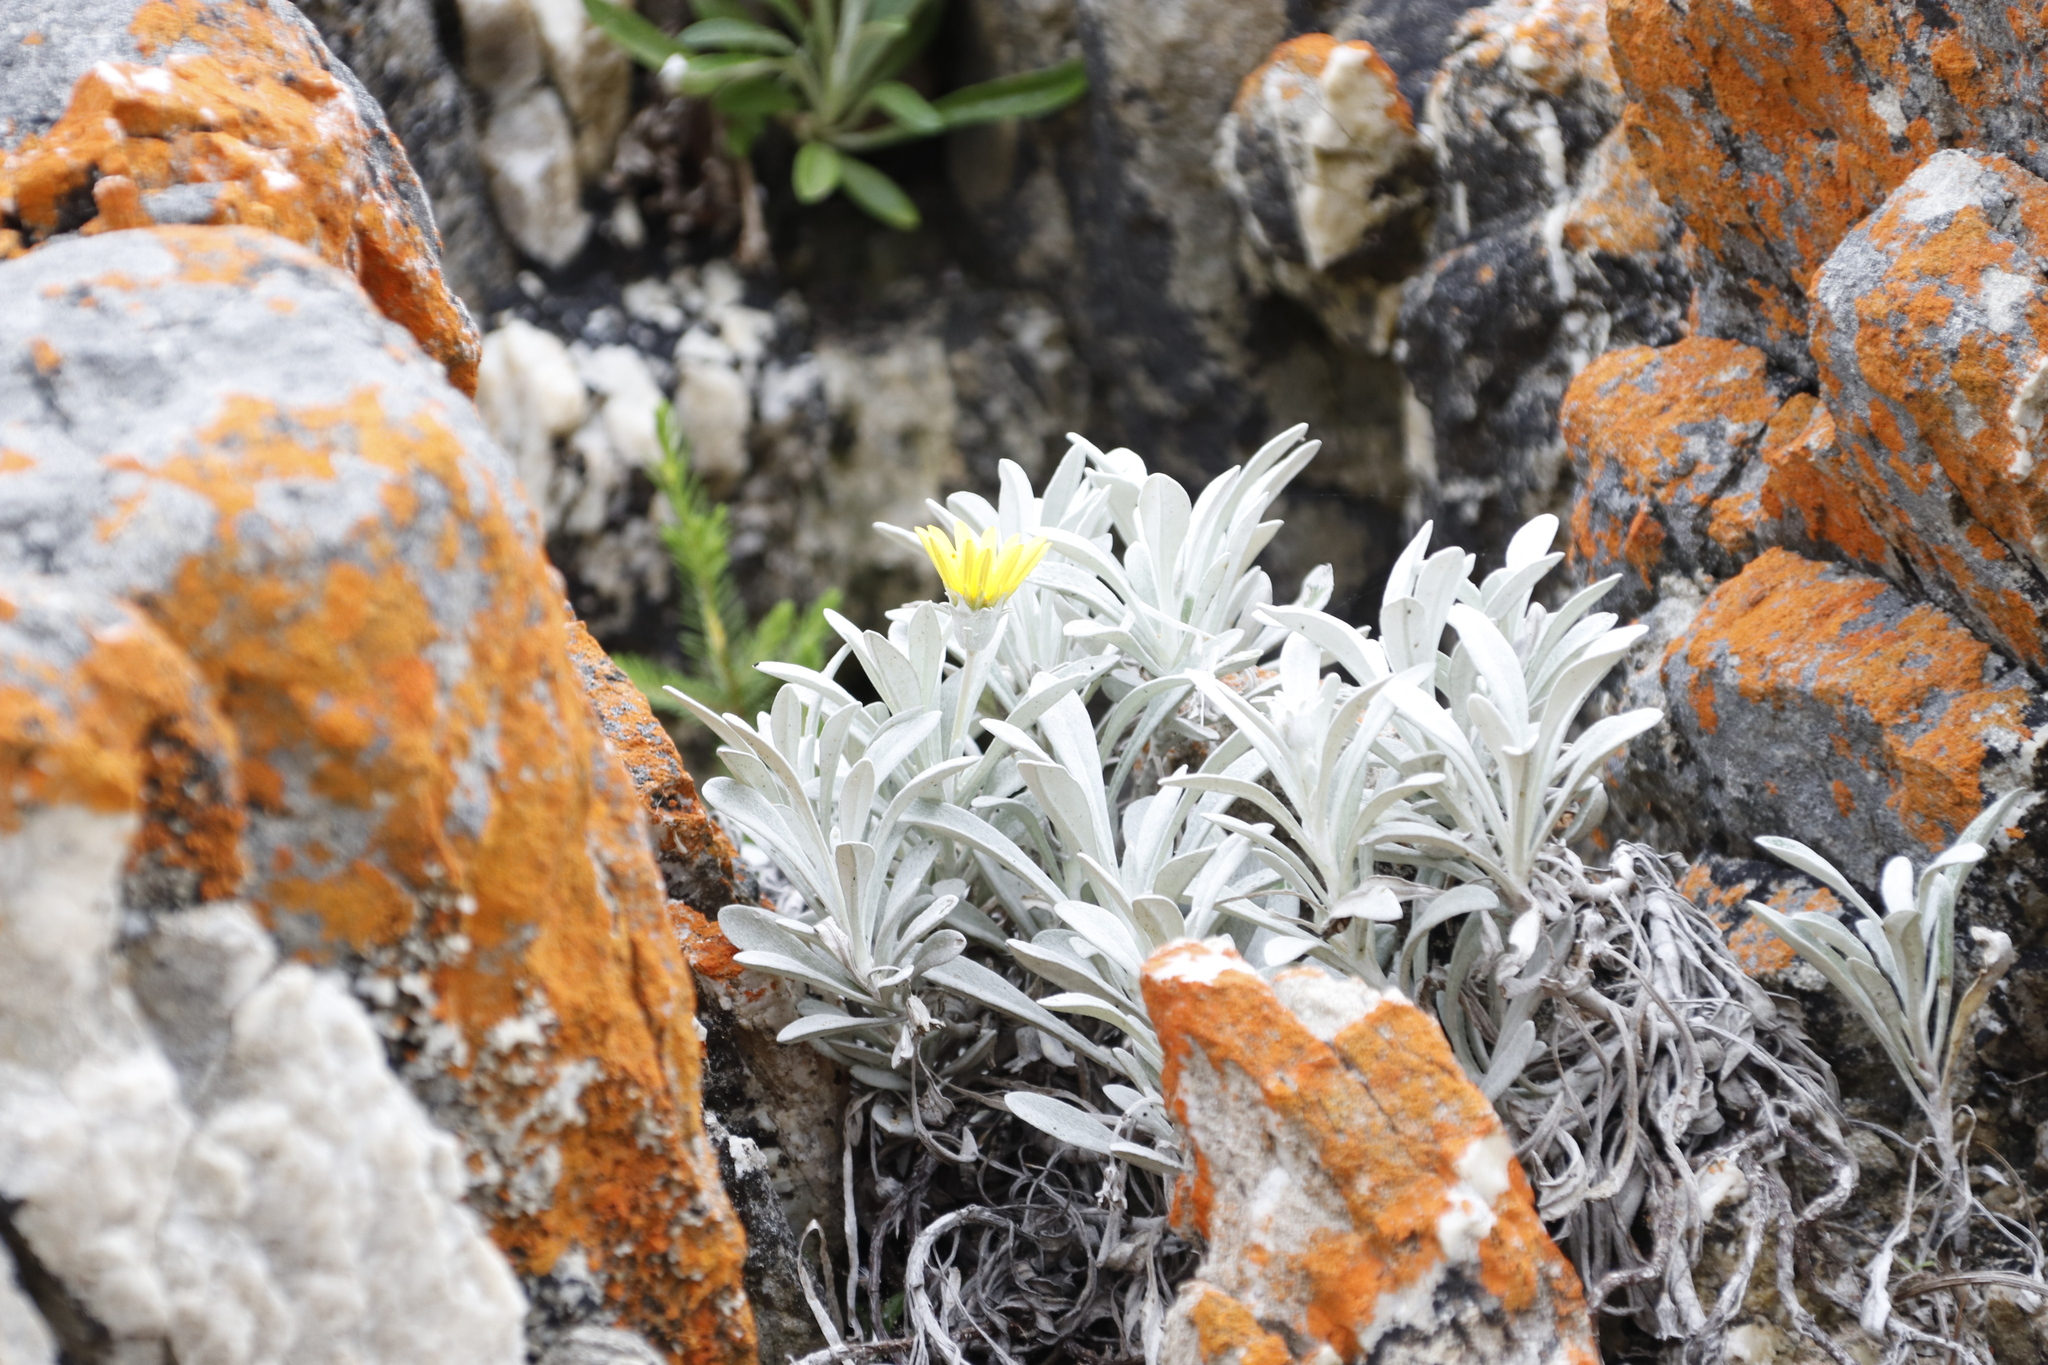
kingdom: Plantae
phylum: Tracheophyta
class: Magnoliopsida
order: Asterales
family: Asteraceae
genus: Gazania
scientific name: Gazania rigens
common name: Treasureflower
